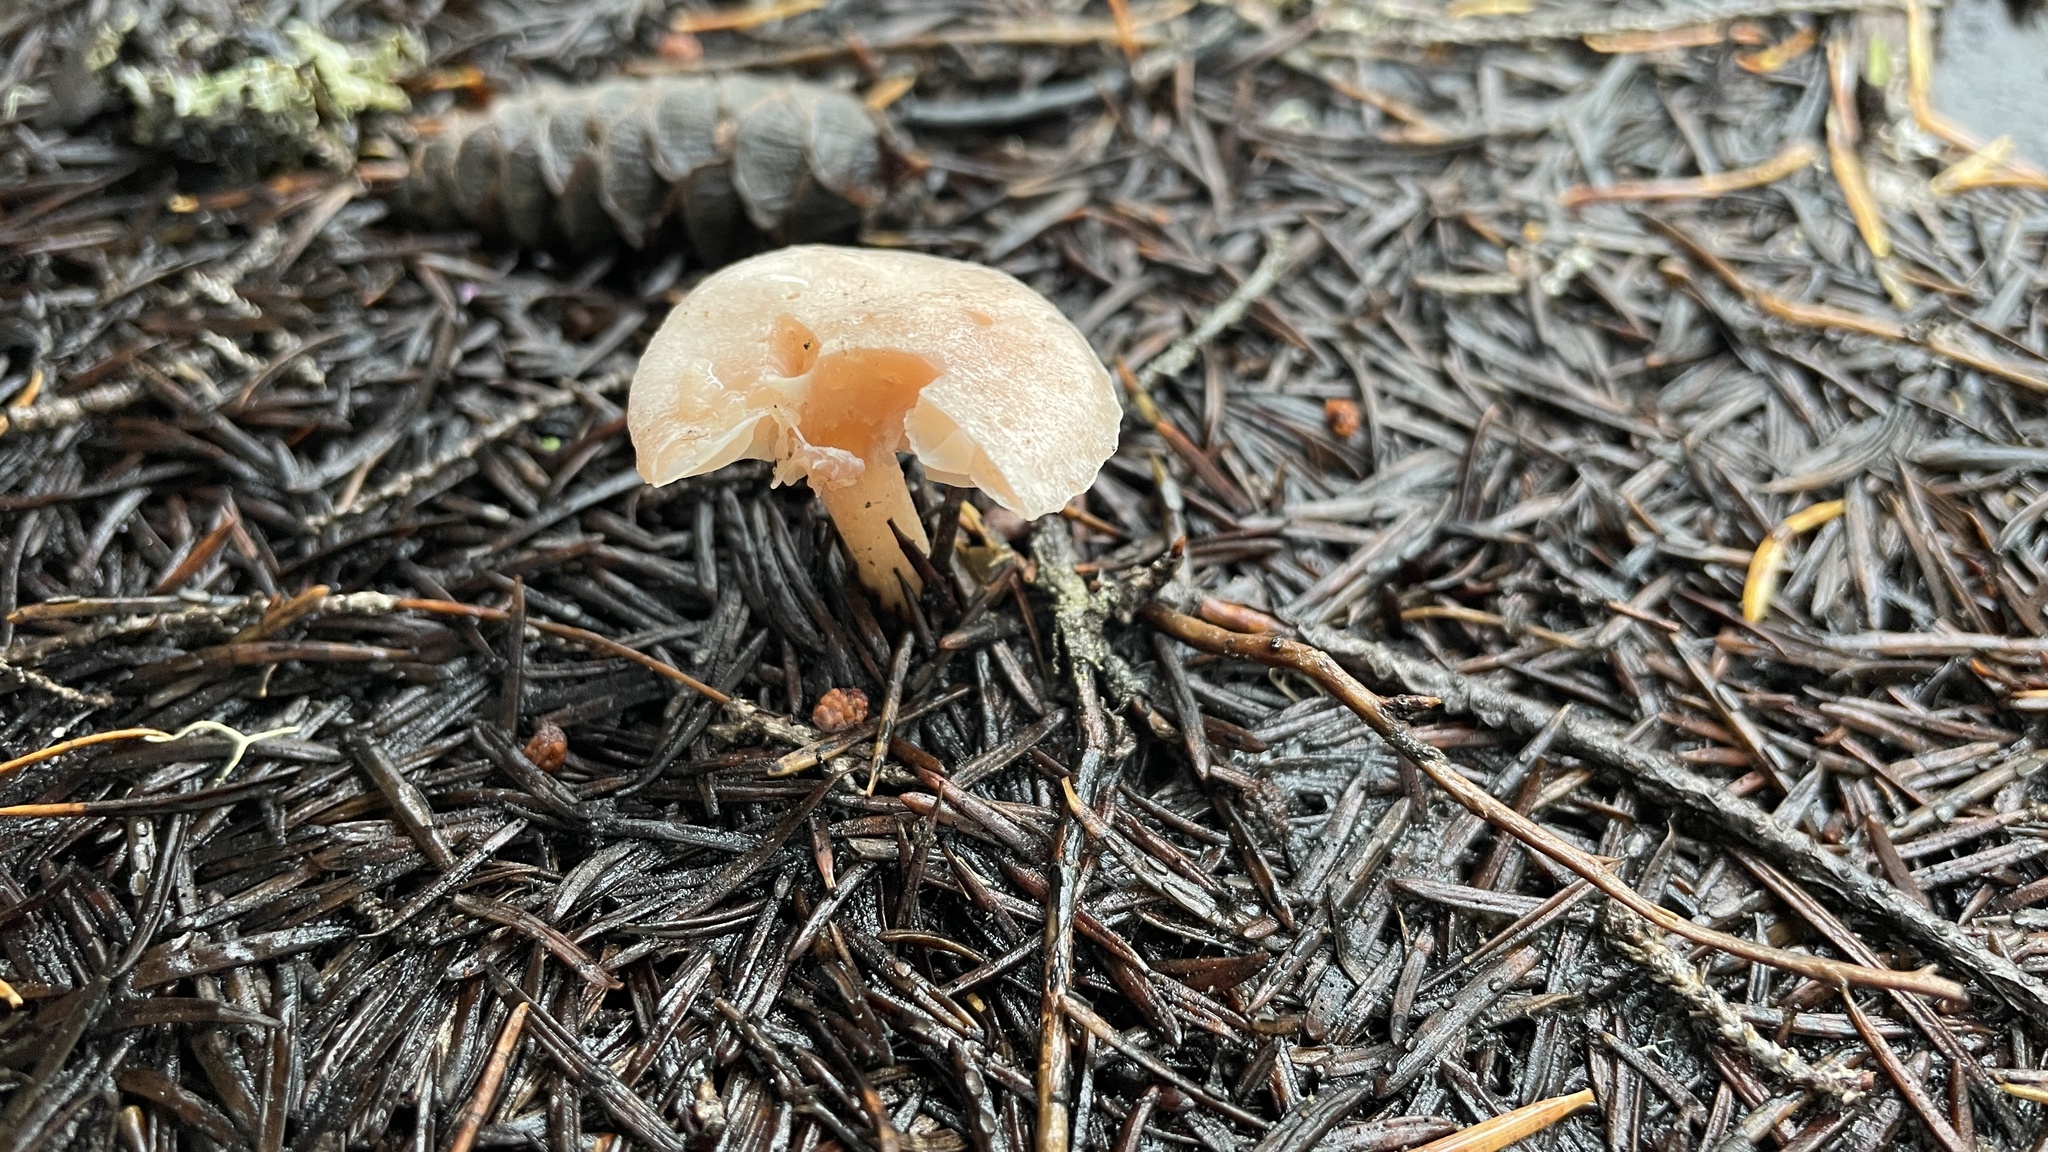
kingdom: Fungi
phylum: Basidiomycota
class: Agaricomycetes
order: Agaricales
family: Hygrophoraceae
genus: Hygrophorus
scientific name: Hygrophorus goetzei
